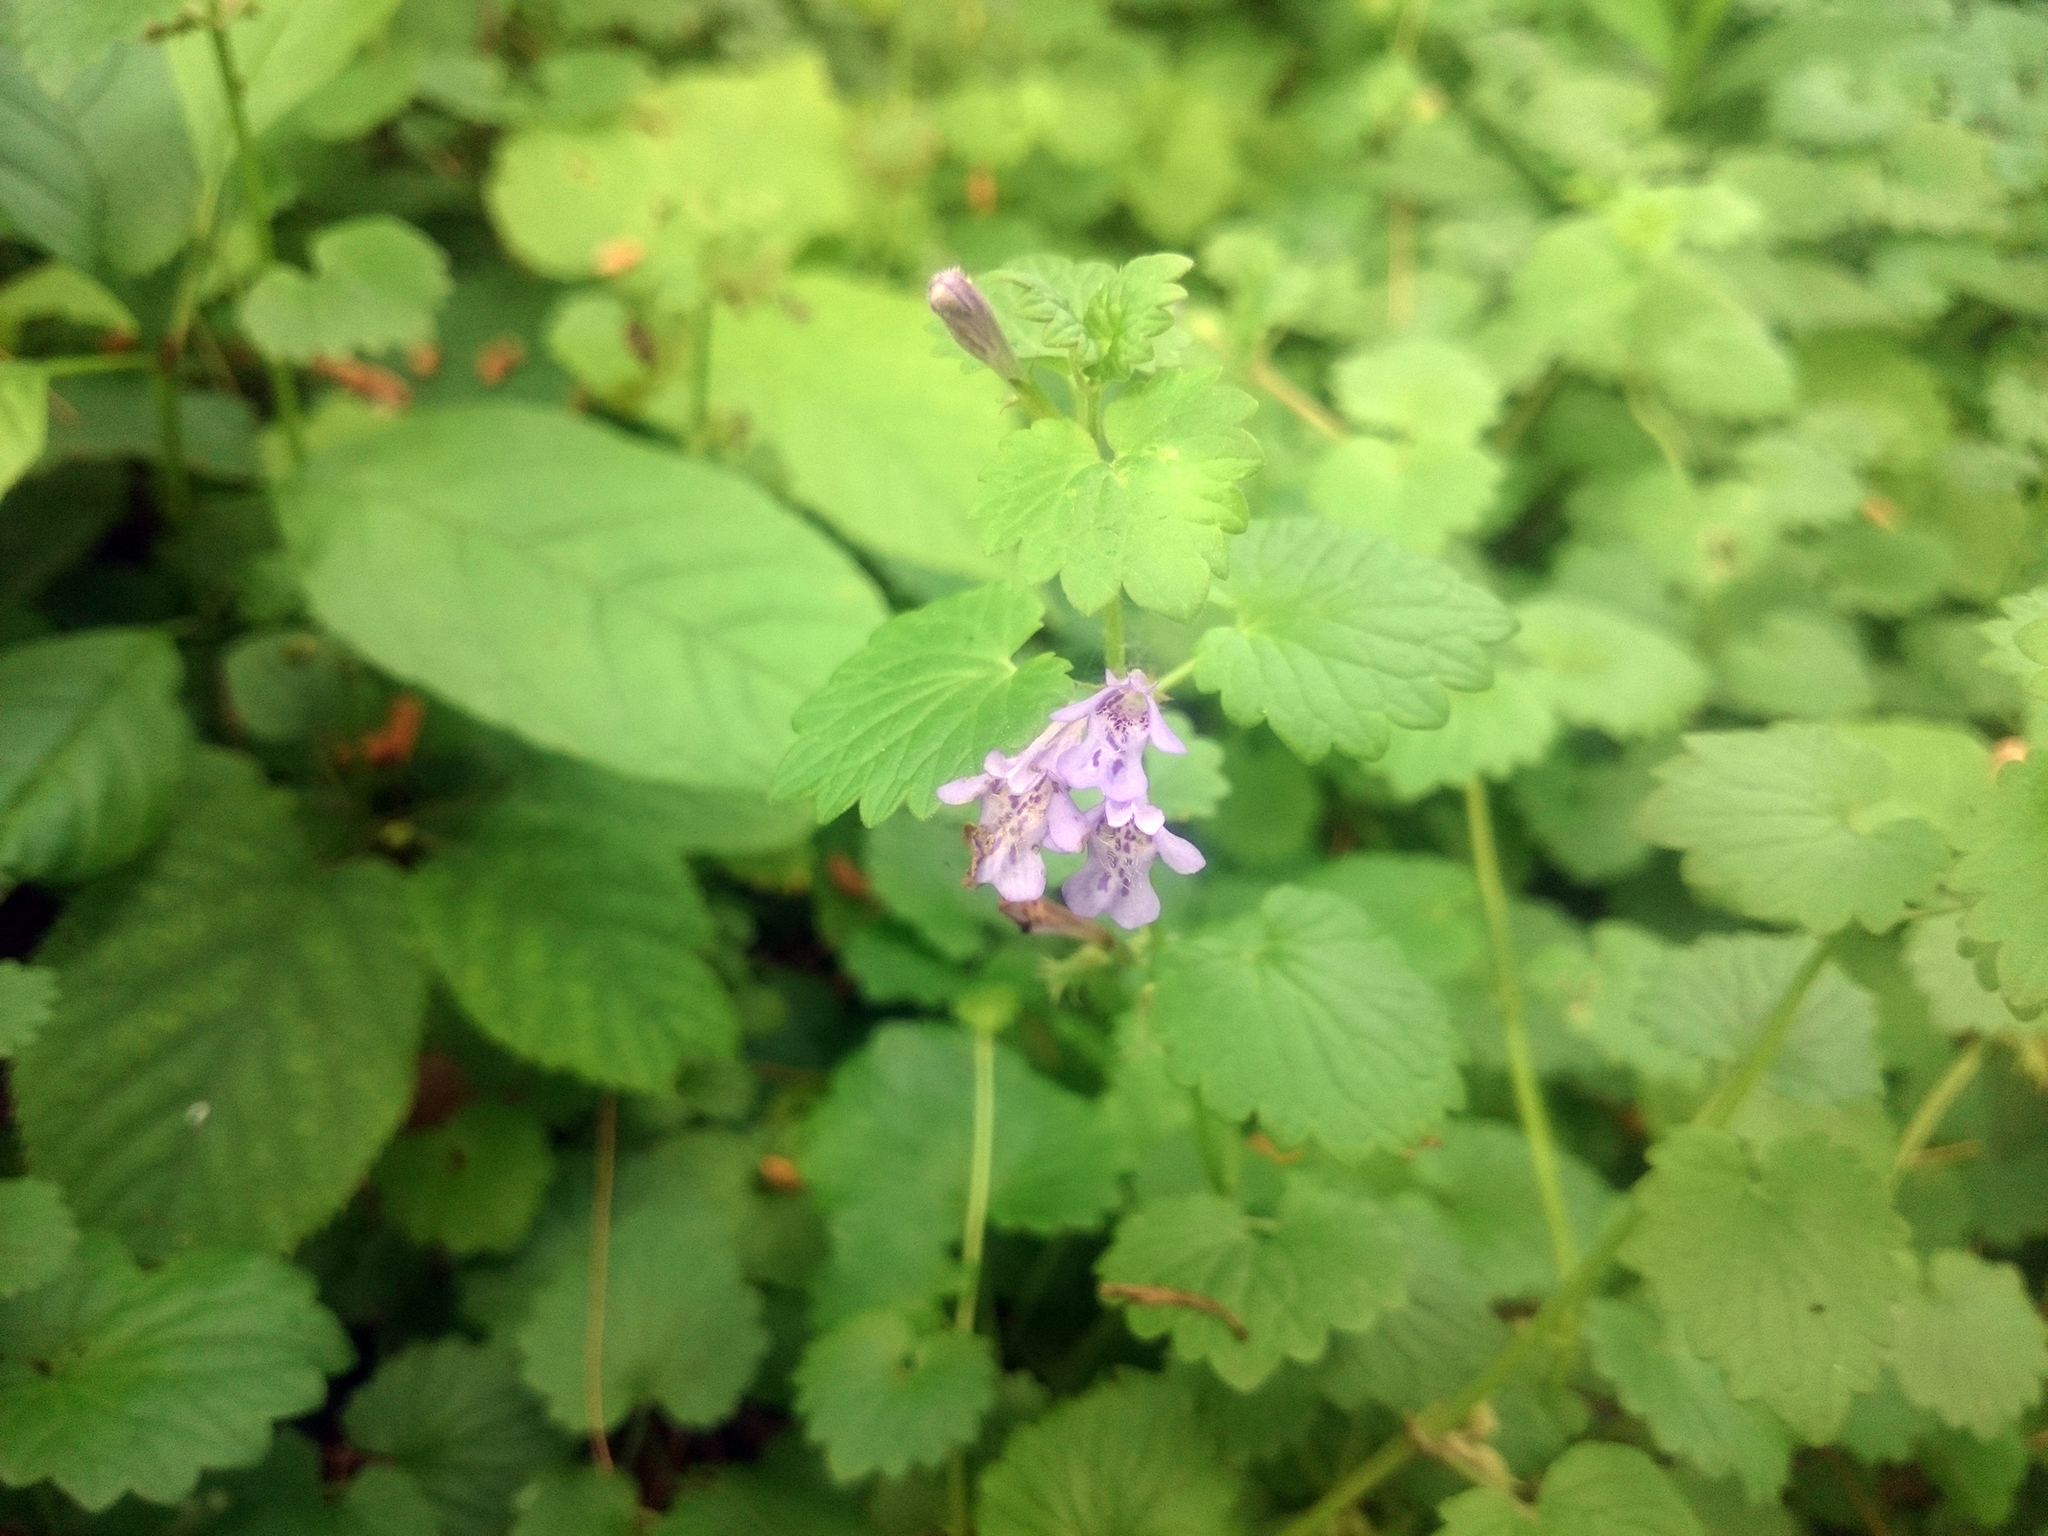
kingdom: Plantae
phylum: Tracheophyta
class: Magnoliopsida
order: Lamiales
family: Lamiaceae
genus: Glechoma
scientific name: Glechoma hederacea
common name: Ground ivy
